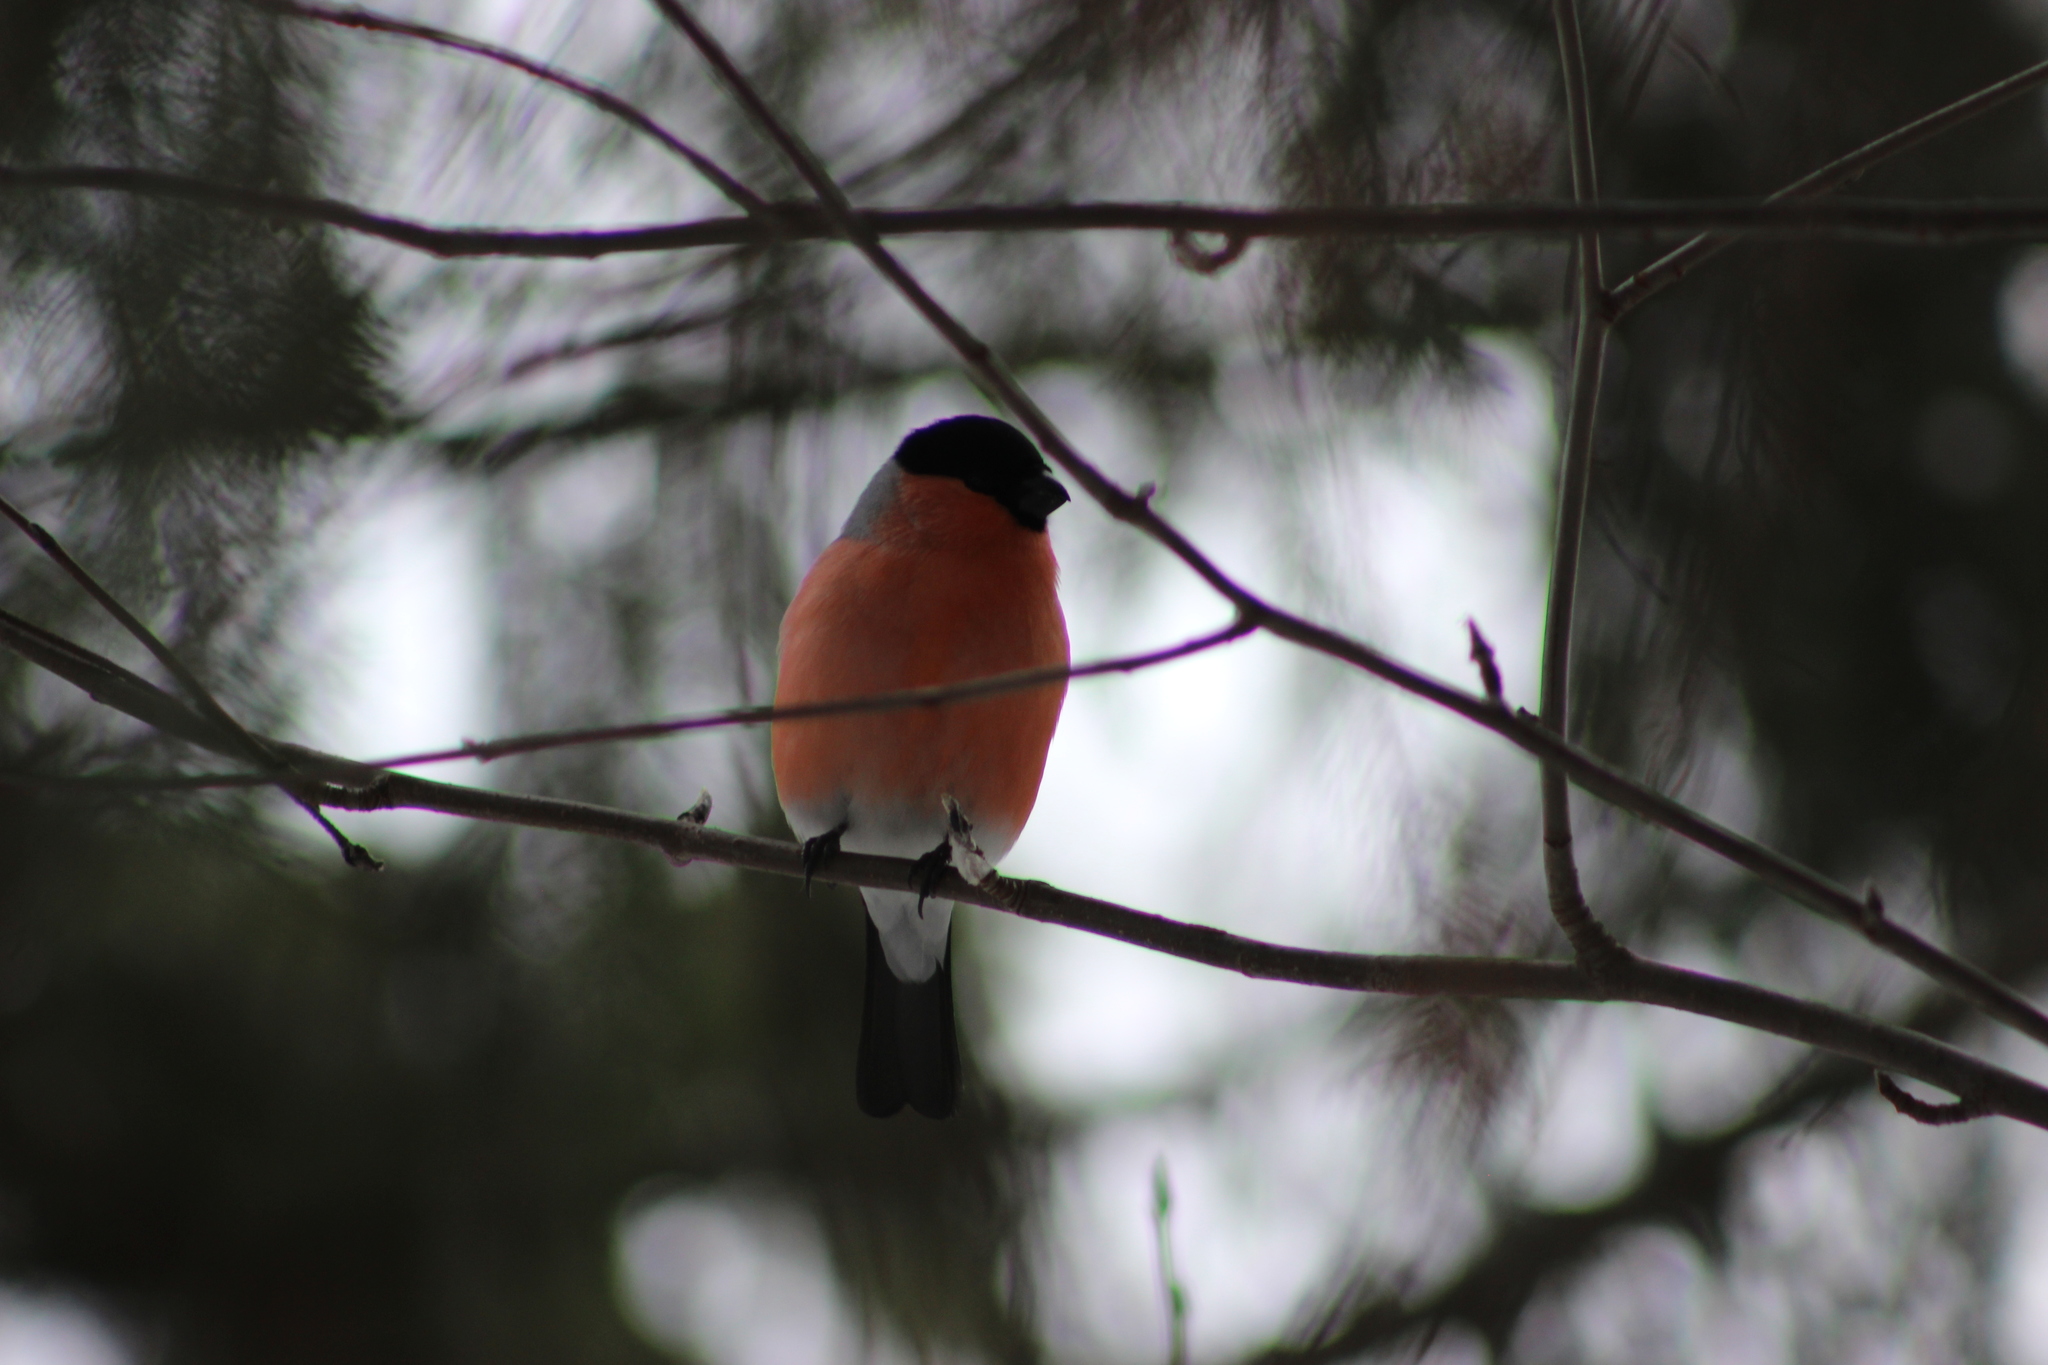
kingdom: Animalia
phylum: Chordata
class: Aves
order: Passeriformes
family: Fringillidae
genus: Pyrrhula
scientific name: Pyrrhula pyrrhula
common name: Eurasian bullfinch
